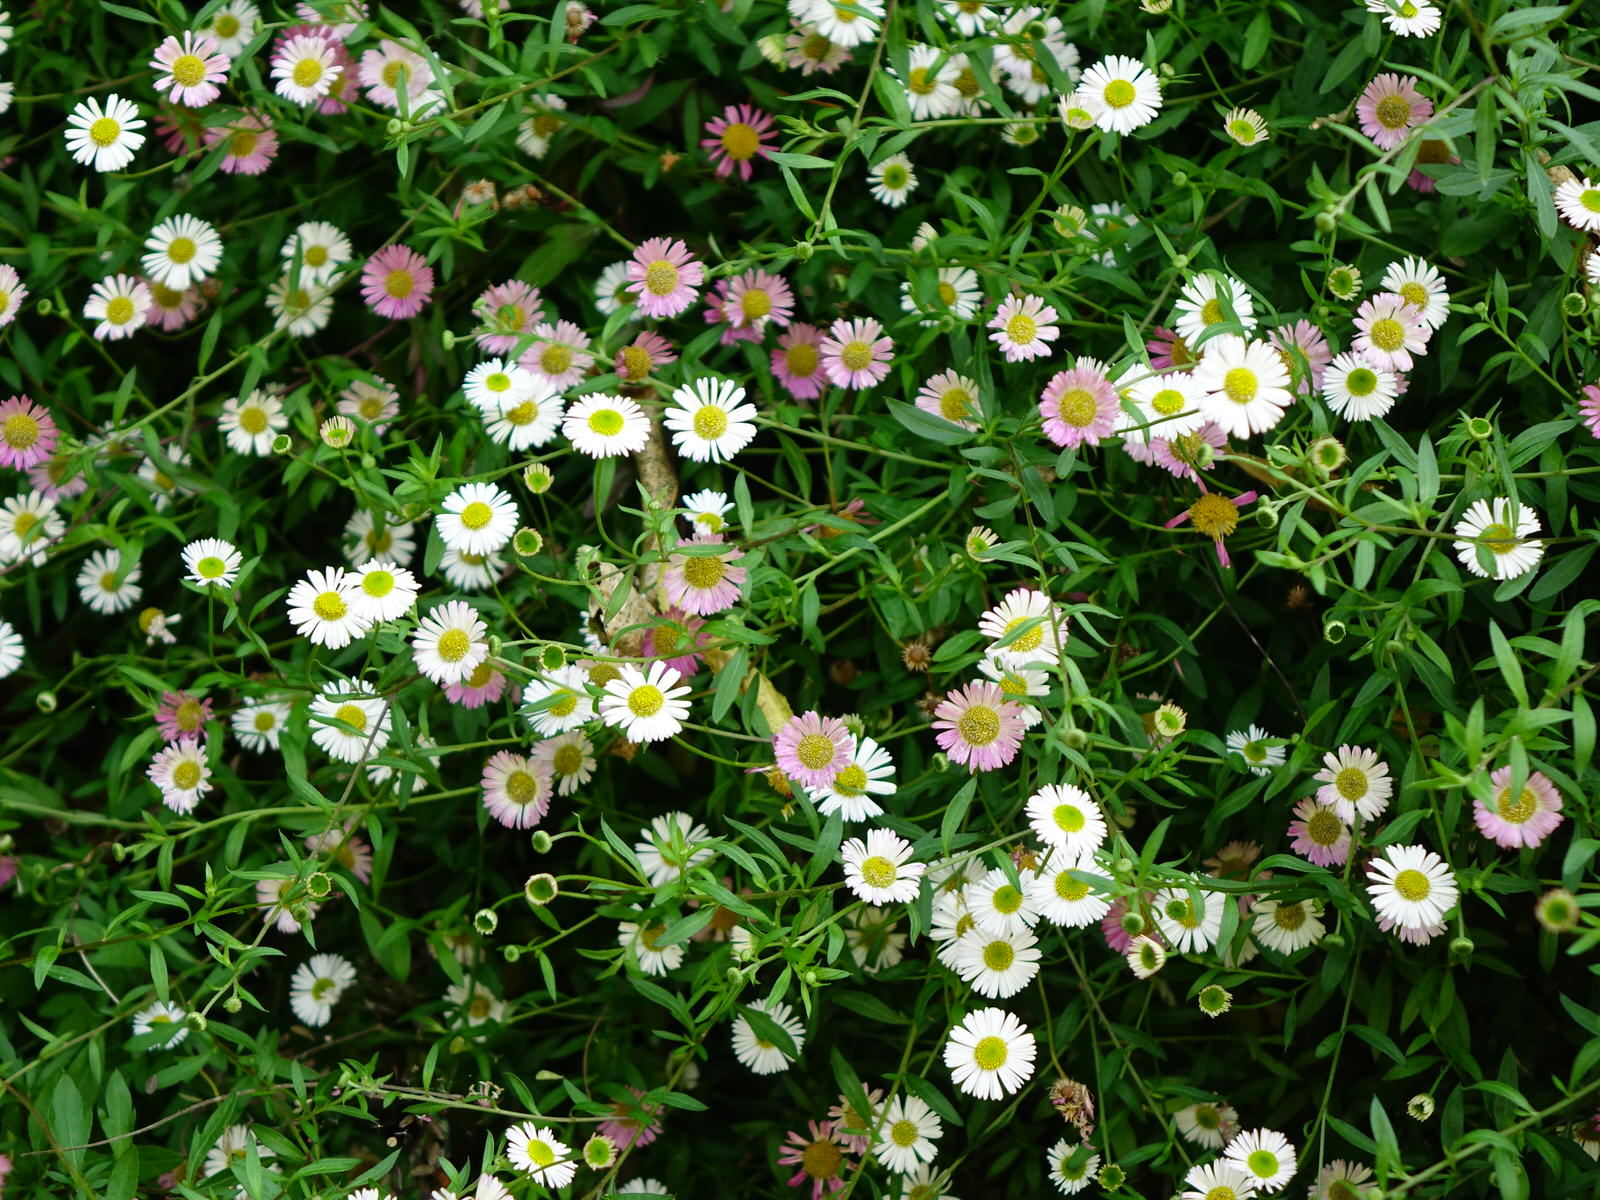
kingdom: Plantae
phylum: Tracheophyta
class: Magnoliopsida
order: Asterales
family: Asteraceae
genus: Erigeron
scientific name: Erigeron karvinskianus
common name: Mexican fleabane
